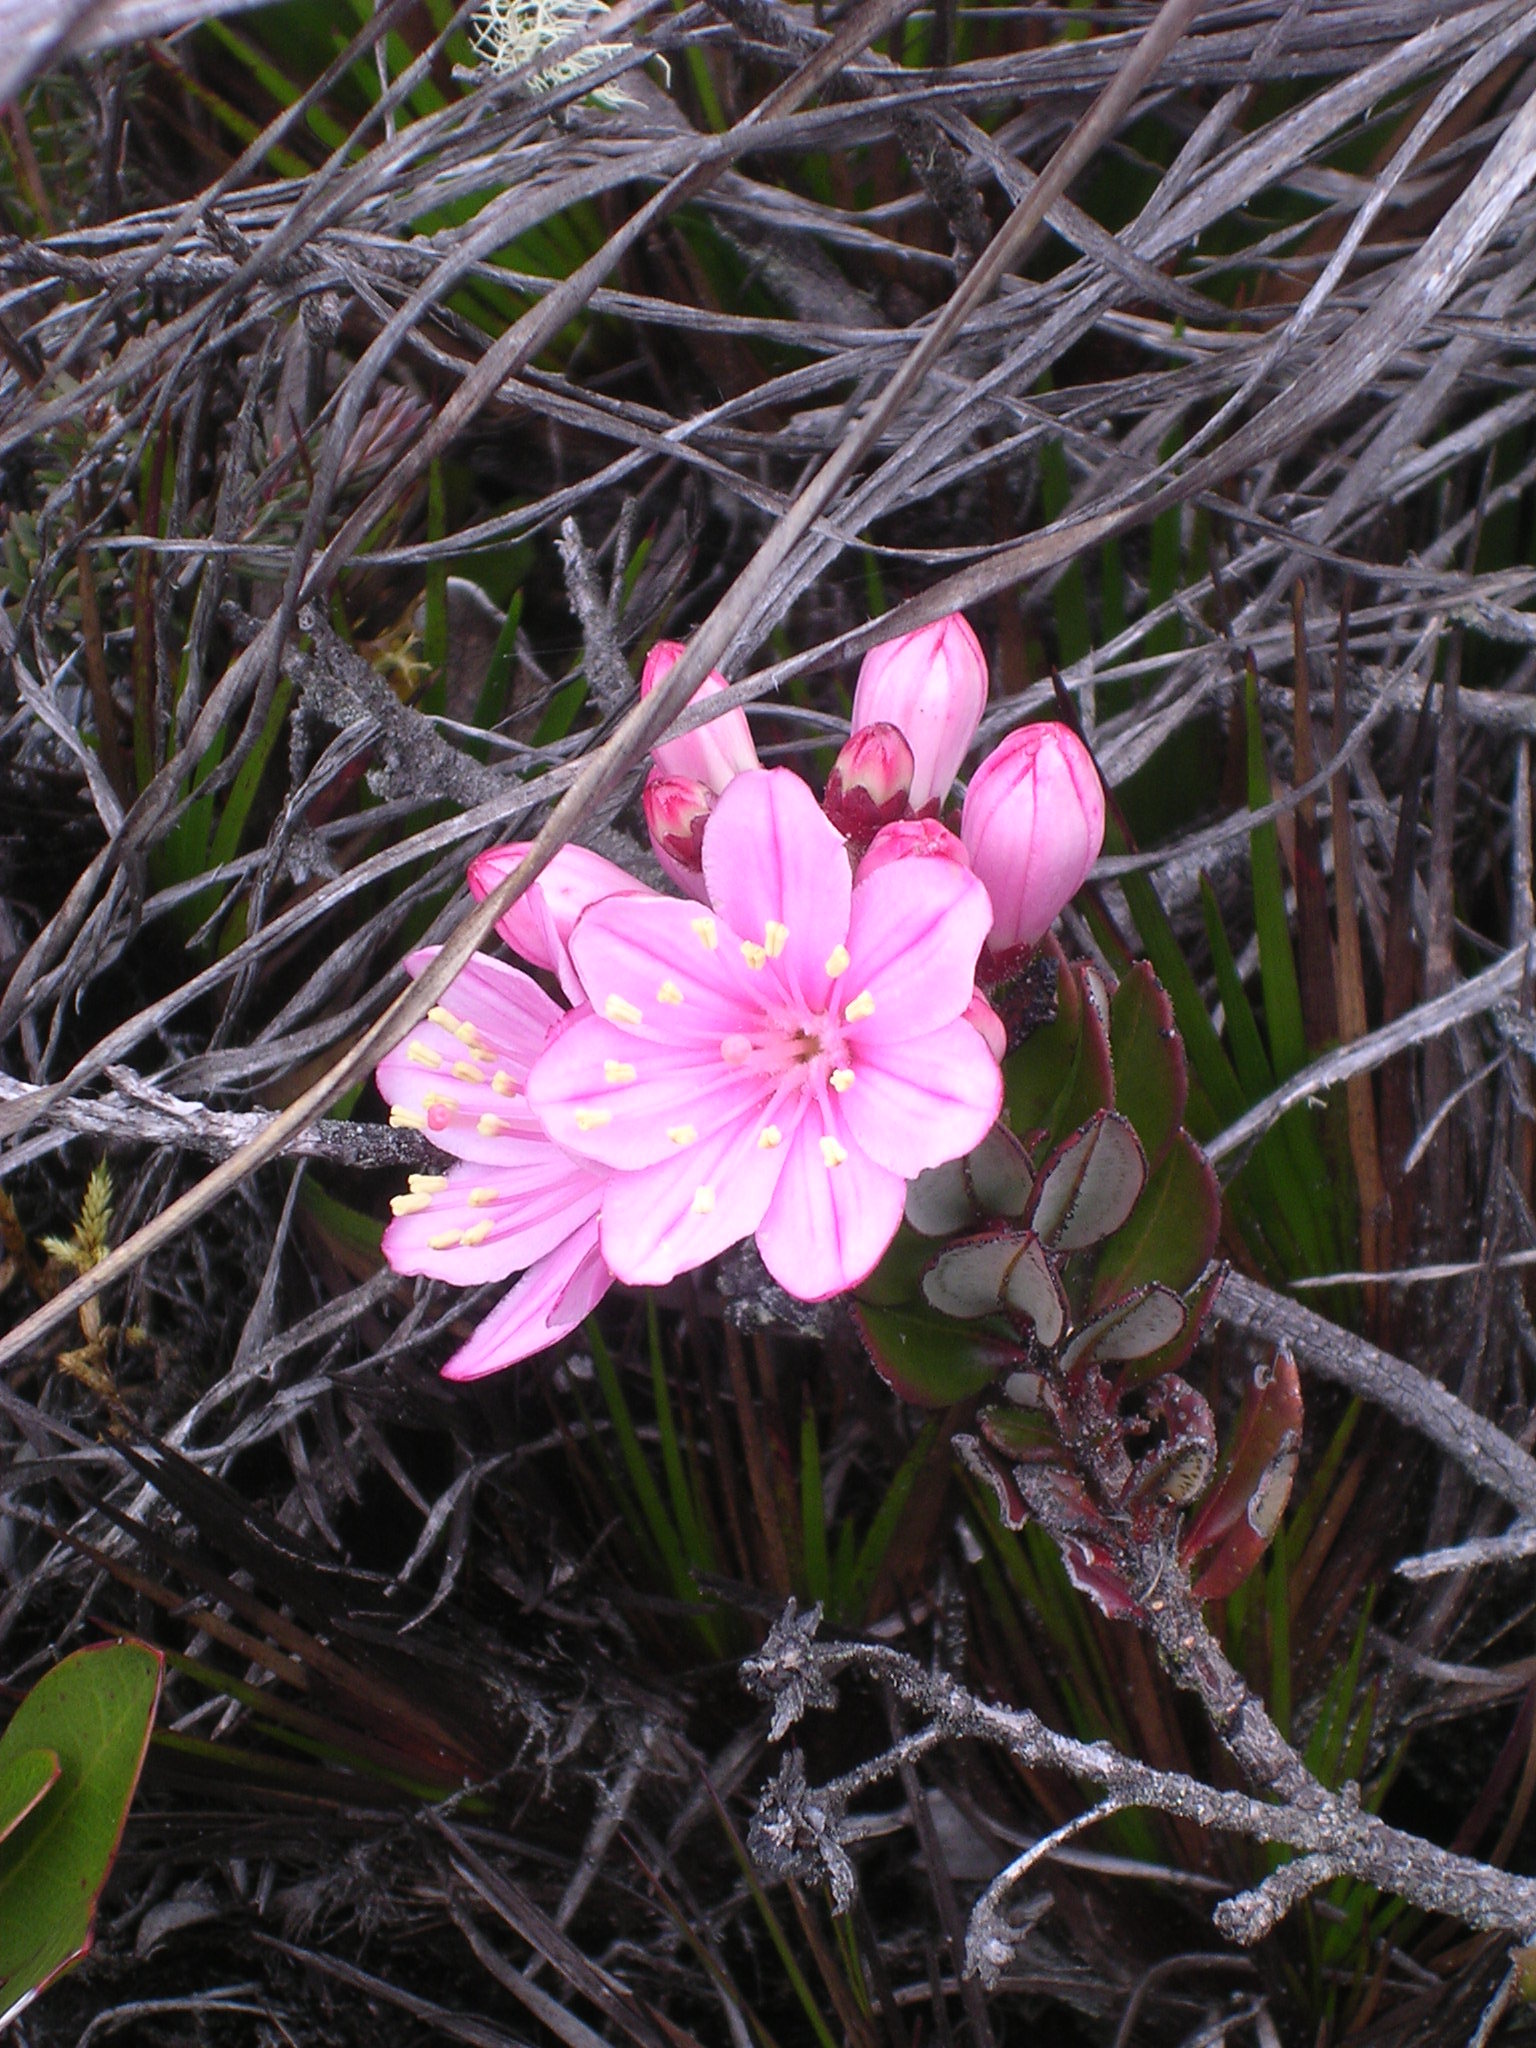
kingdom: Plantae
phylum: Tracheophyta
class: Magnoliopsida
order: Ericales
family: Ericaceae
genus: Bejaria
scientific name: Bejaria imthurnii
